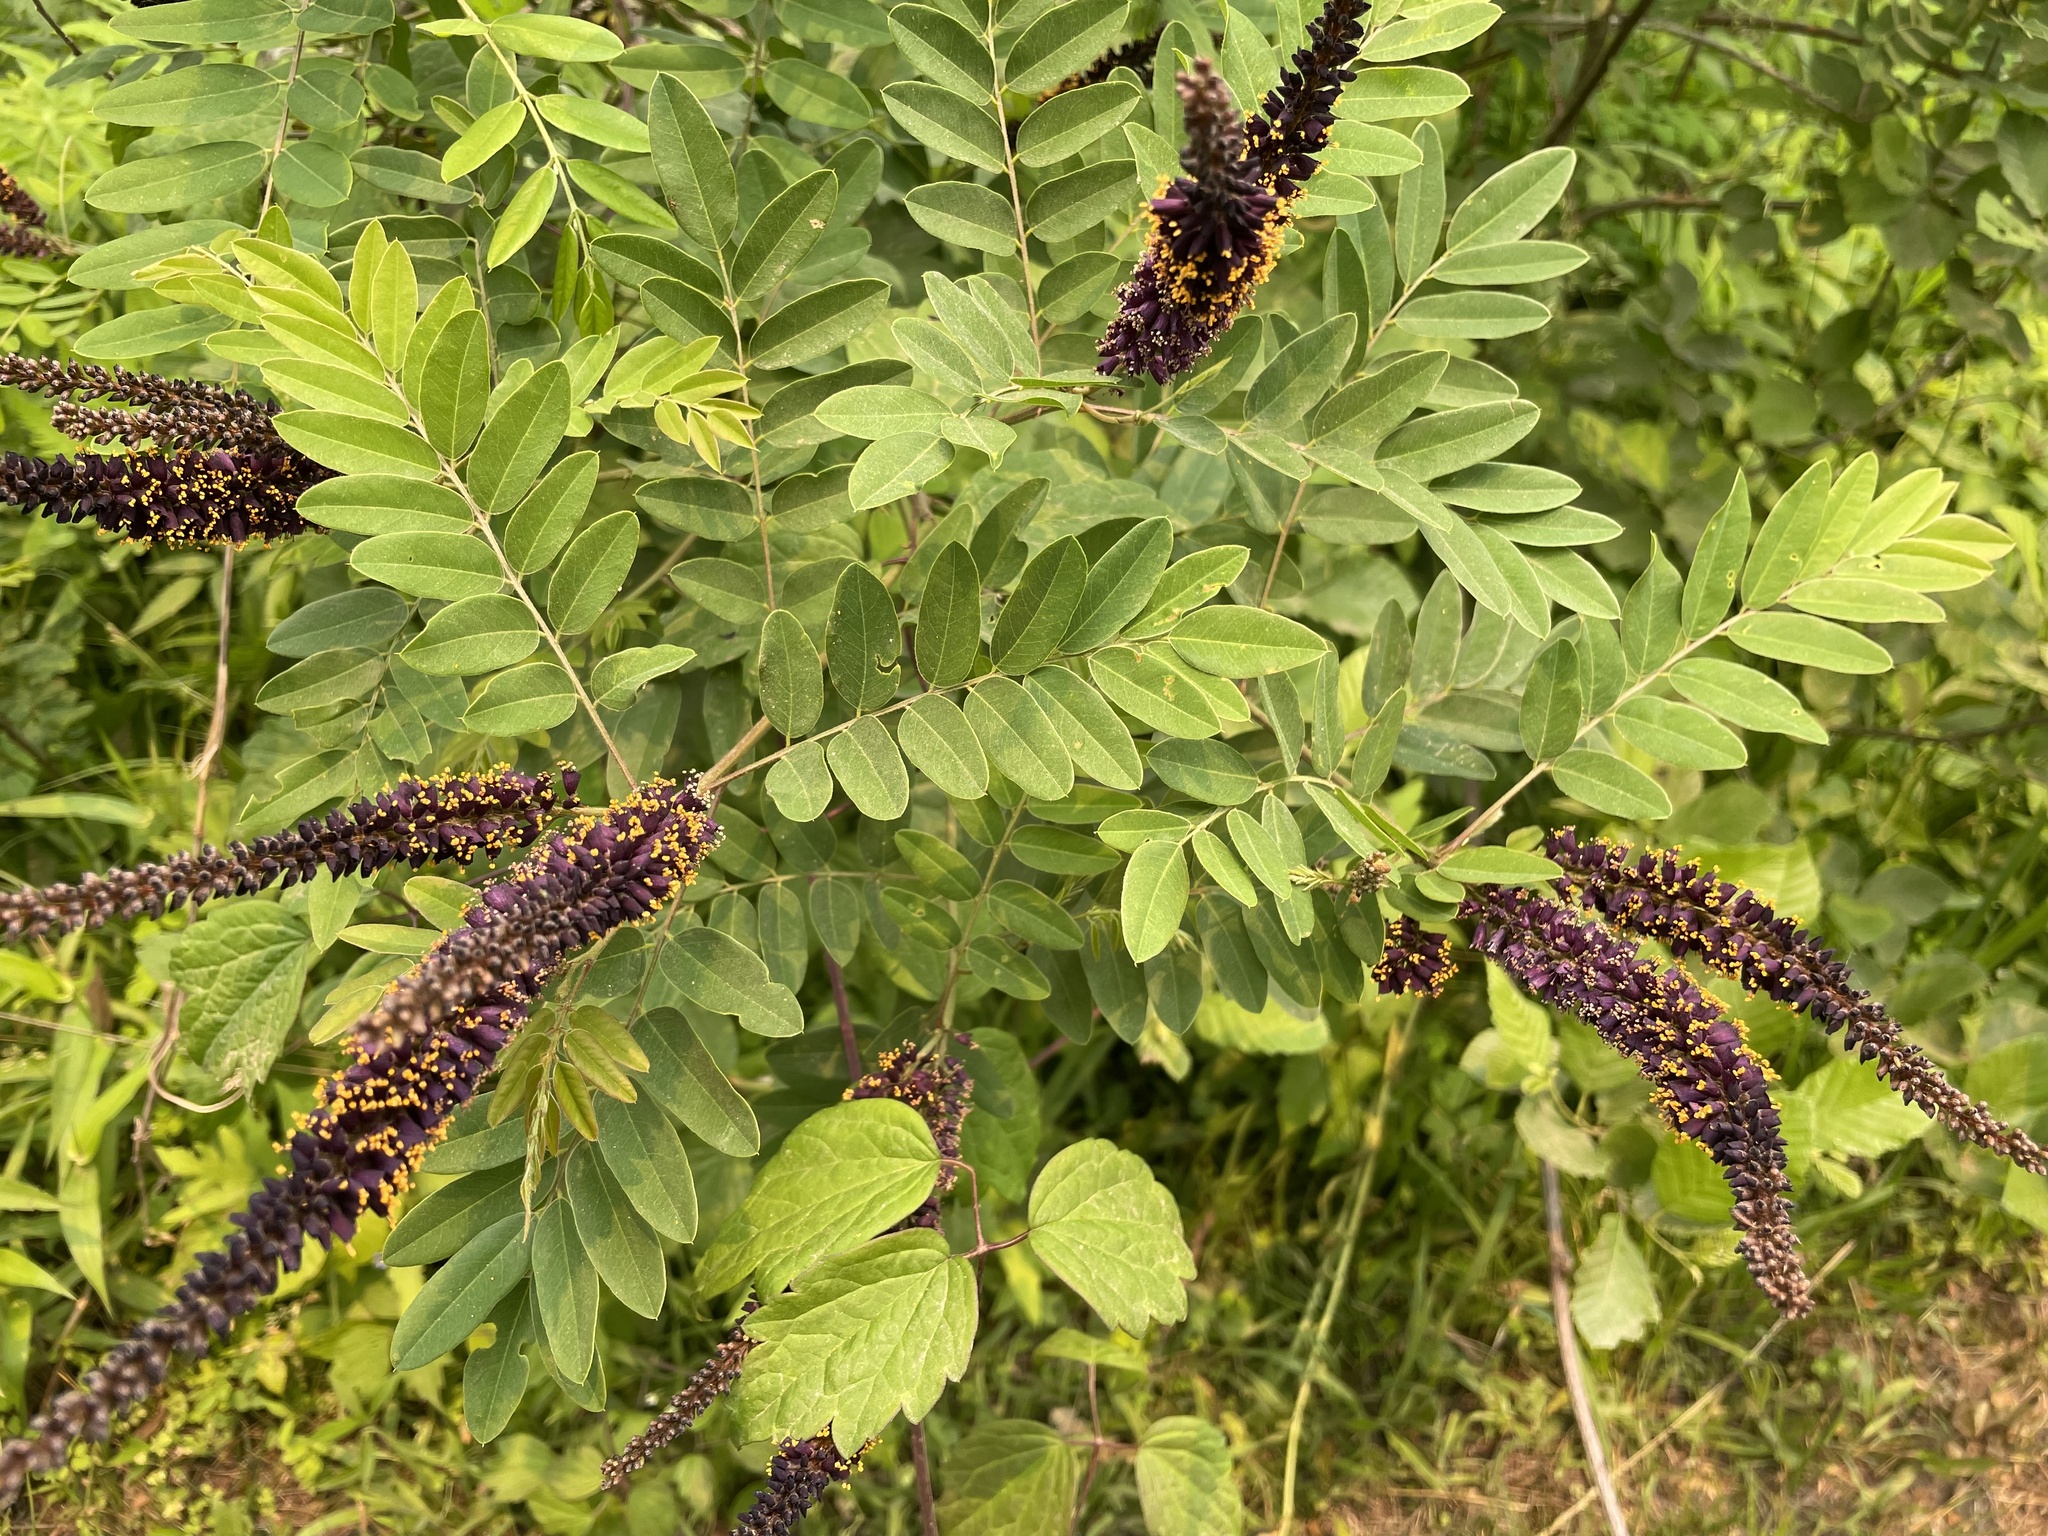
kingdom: Plantae
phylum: Tracheophyta
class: Magnoliopsida
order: Fabales
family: Fabaceae
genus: Amorpha
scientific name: Amorpha fruticosa
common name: False indigo
